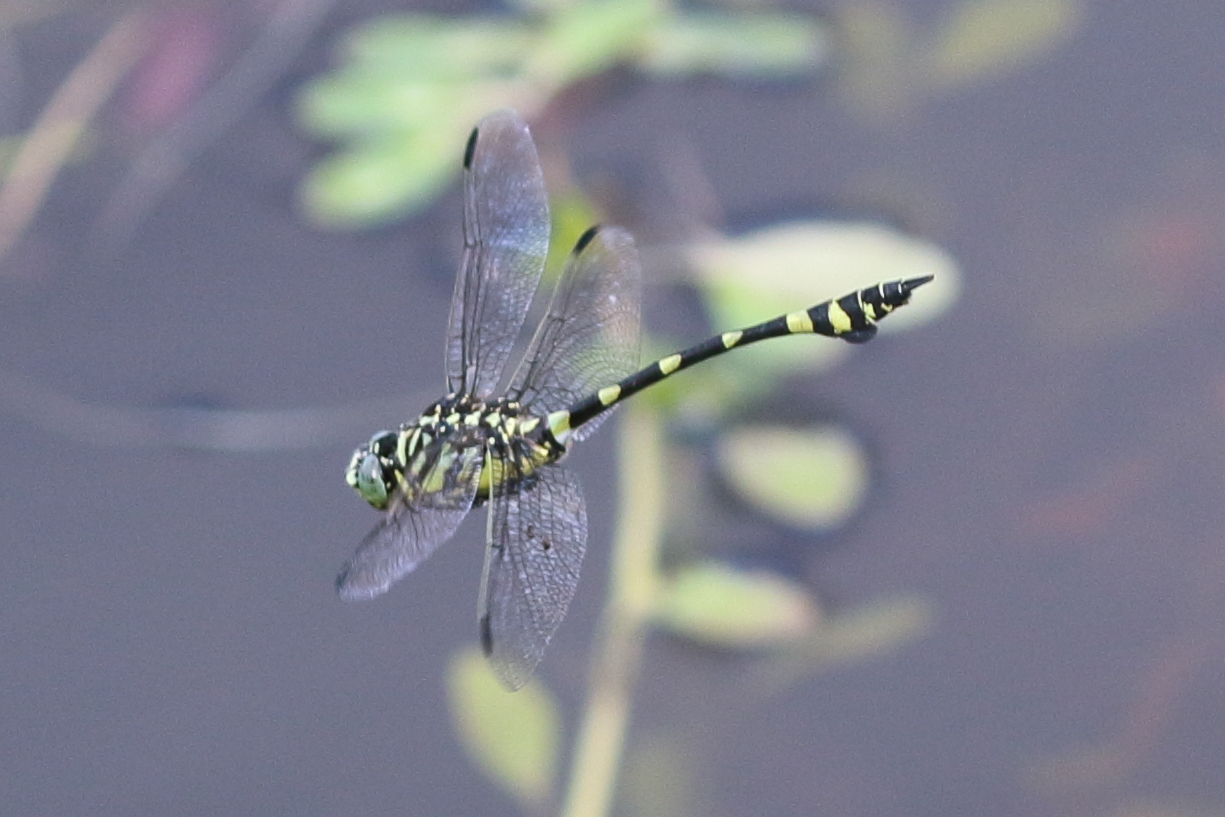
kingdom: Animalia
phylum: Arthropoda
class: Insecta
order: Odonata
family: Gomphidae
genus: Ictinogomphus
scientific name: Ictinogomphus australis
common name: Australian tiger
